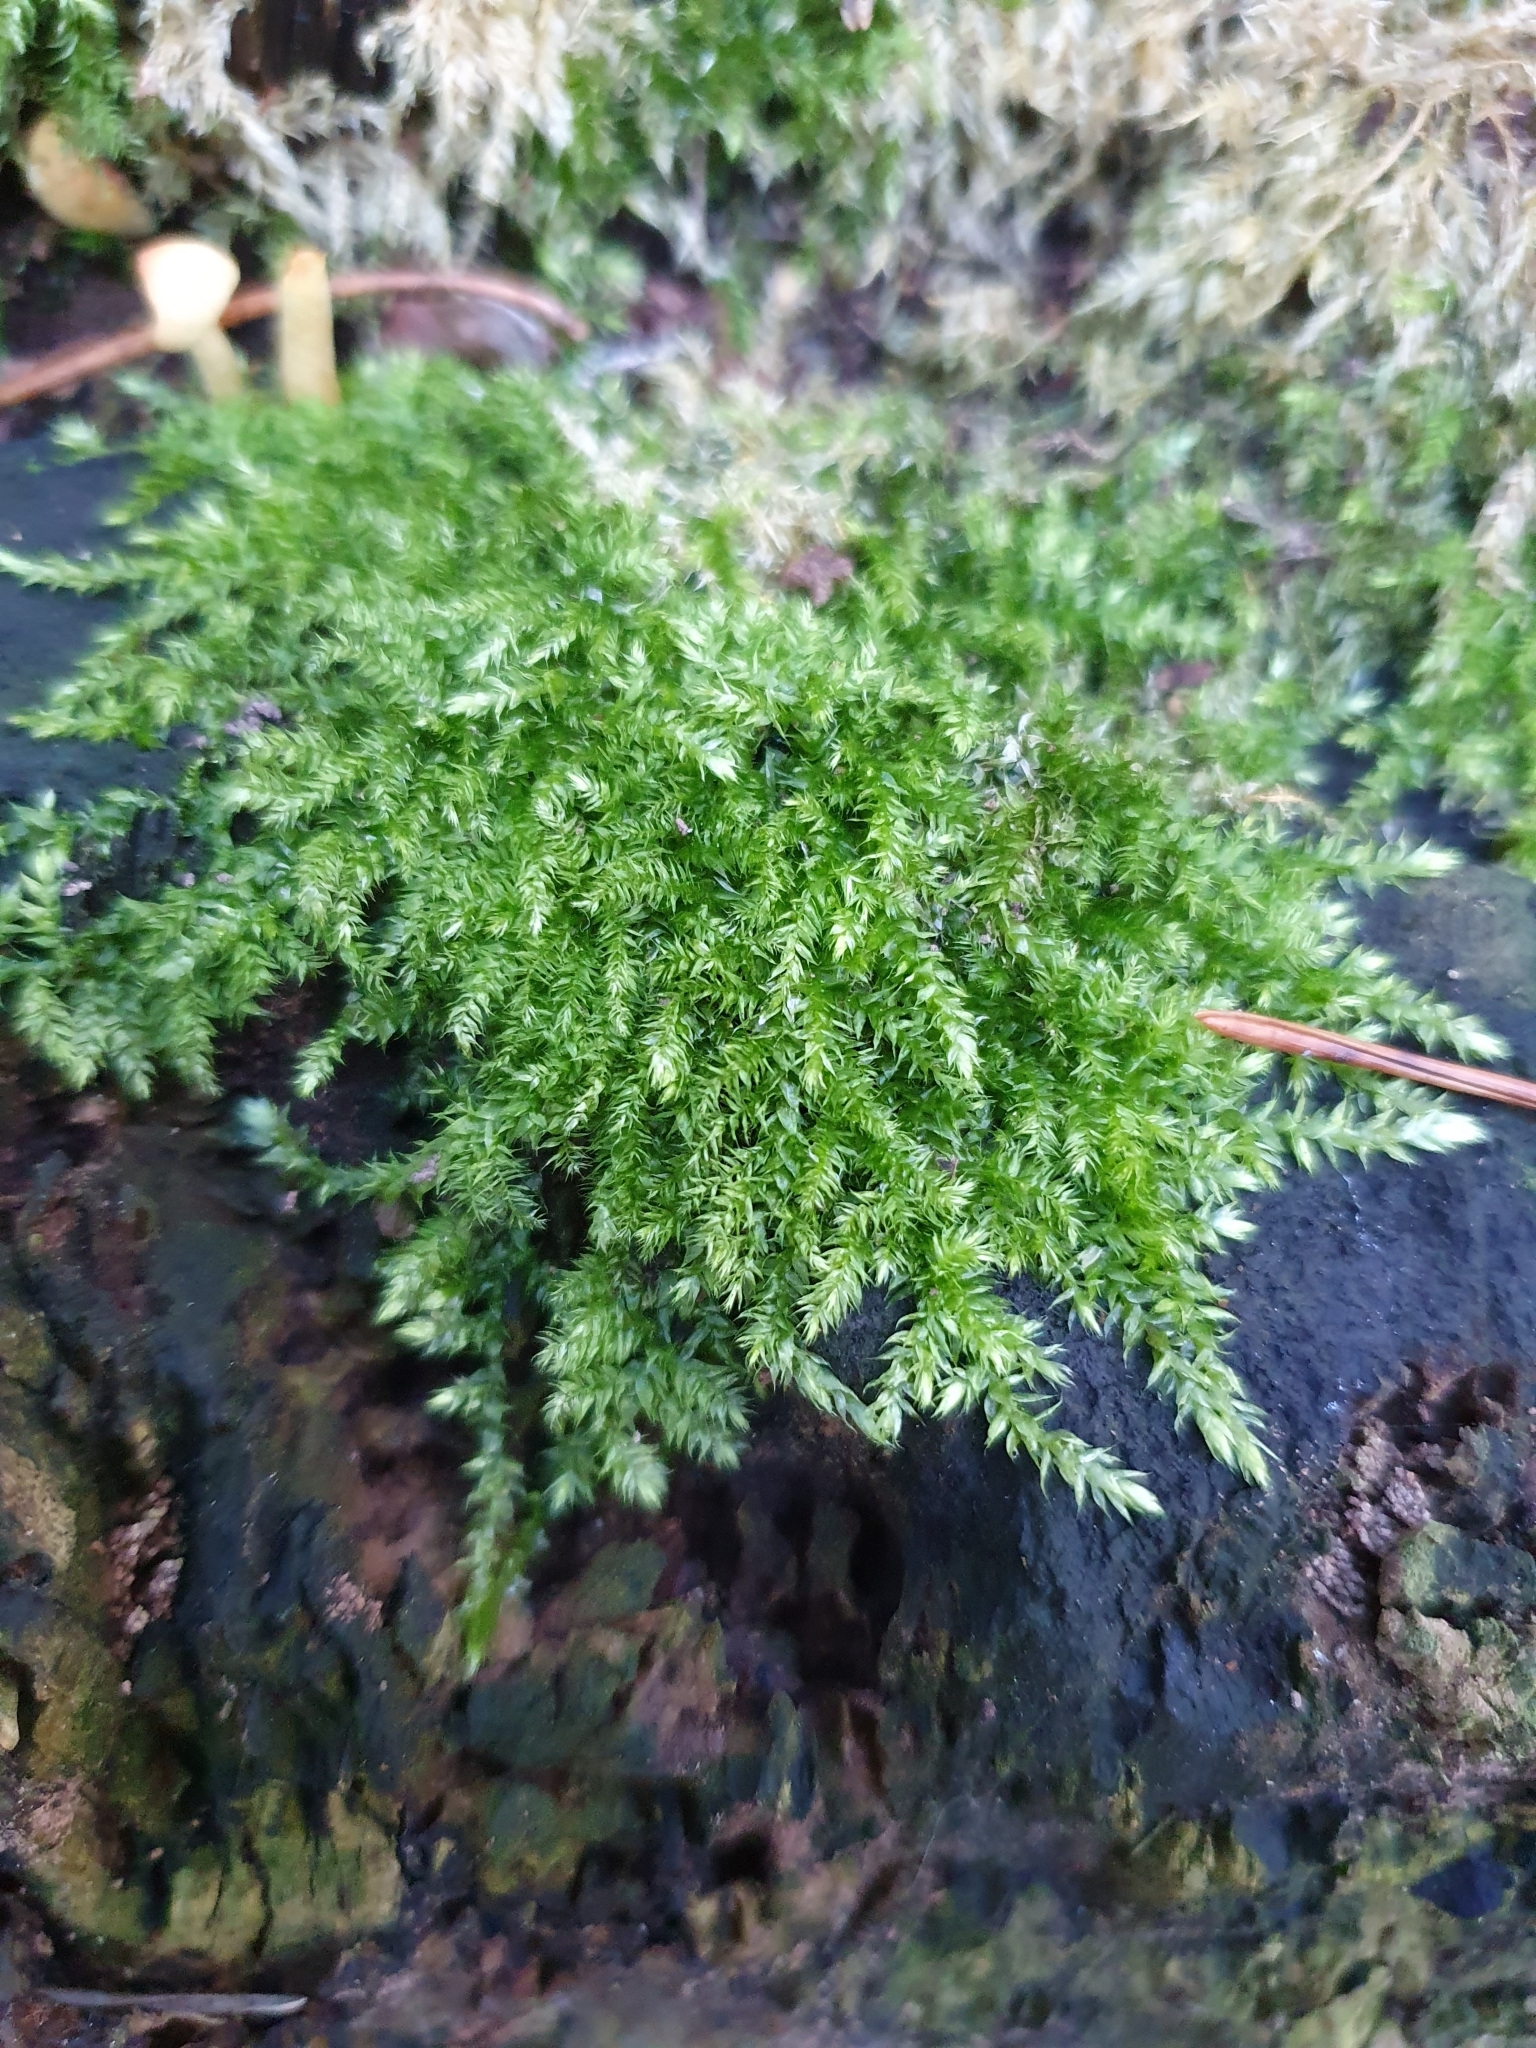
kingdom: Plantae
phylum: Bryophyta
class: Bryopsida
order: Hypnales
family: Brachytheciaceae
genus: Brachythecium
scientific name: Brachythecium rutabulum
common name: Rough-stalked feather-moss
